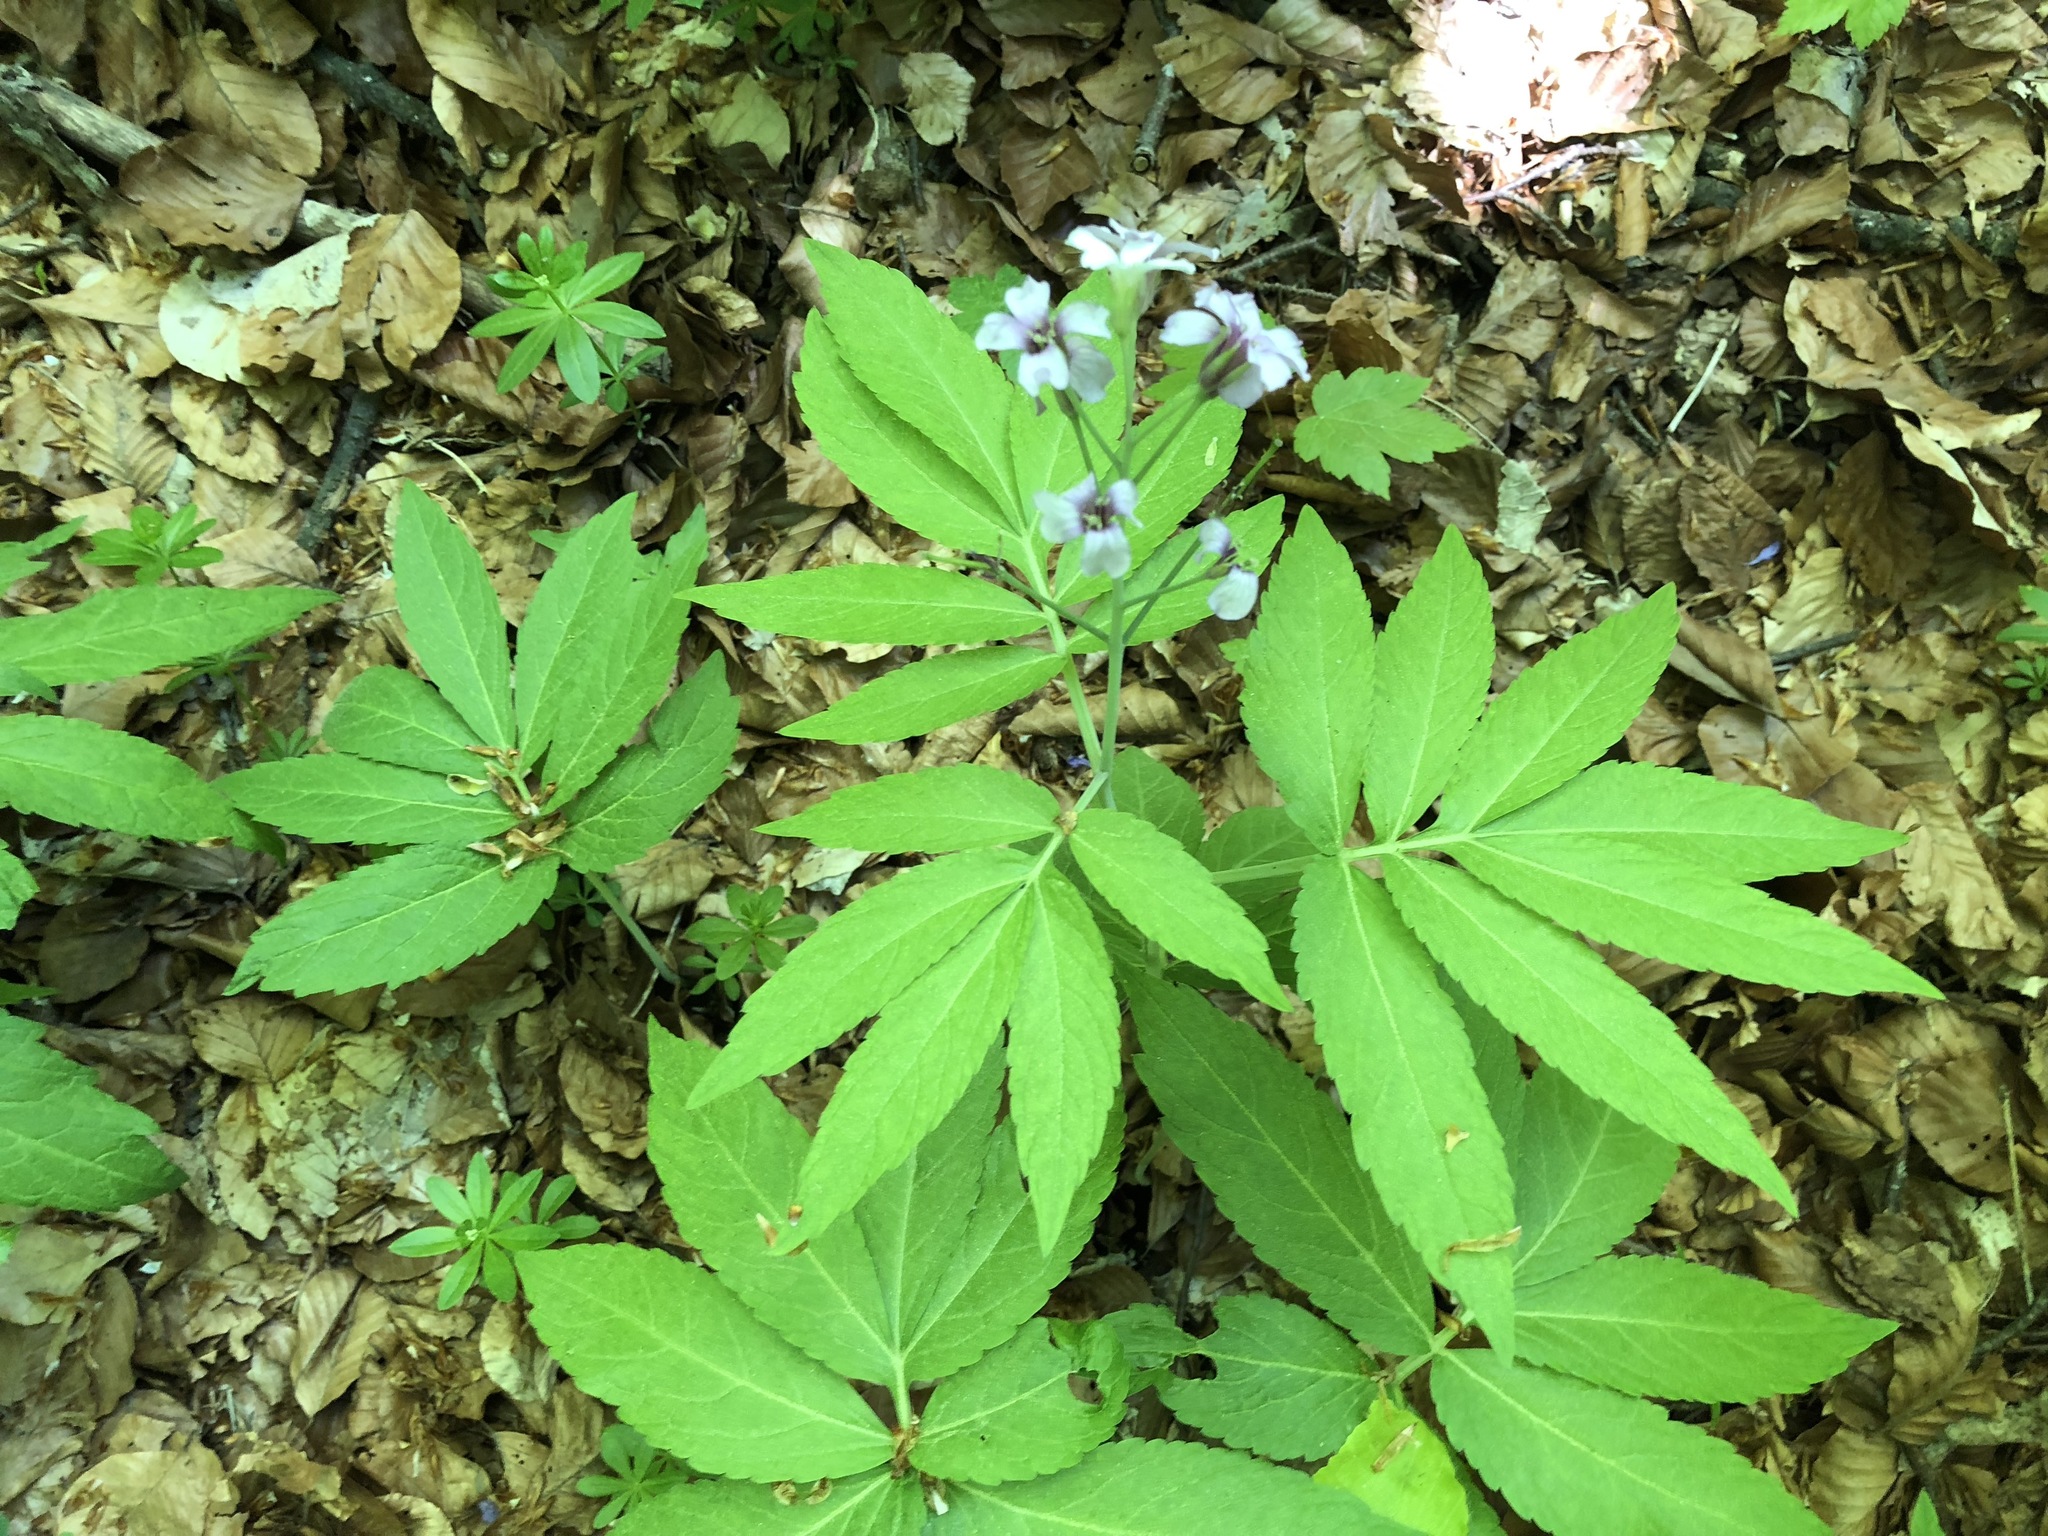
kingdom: Plantae
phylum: Tracheophyta
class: Magnoliopsida
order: Brassicales
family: Brassicaceae
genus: Cardamine
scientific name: Cardamine digenea
